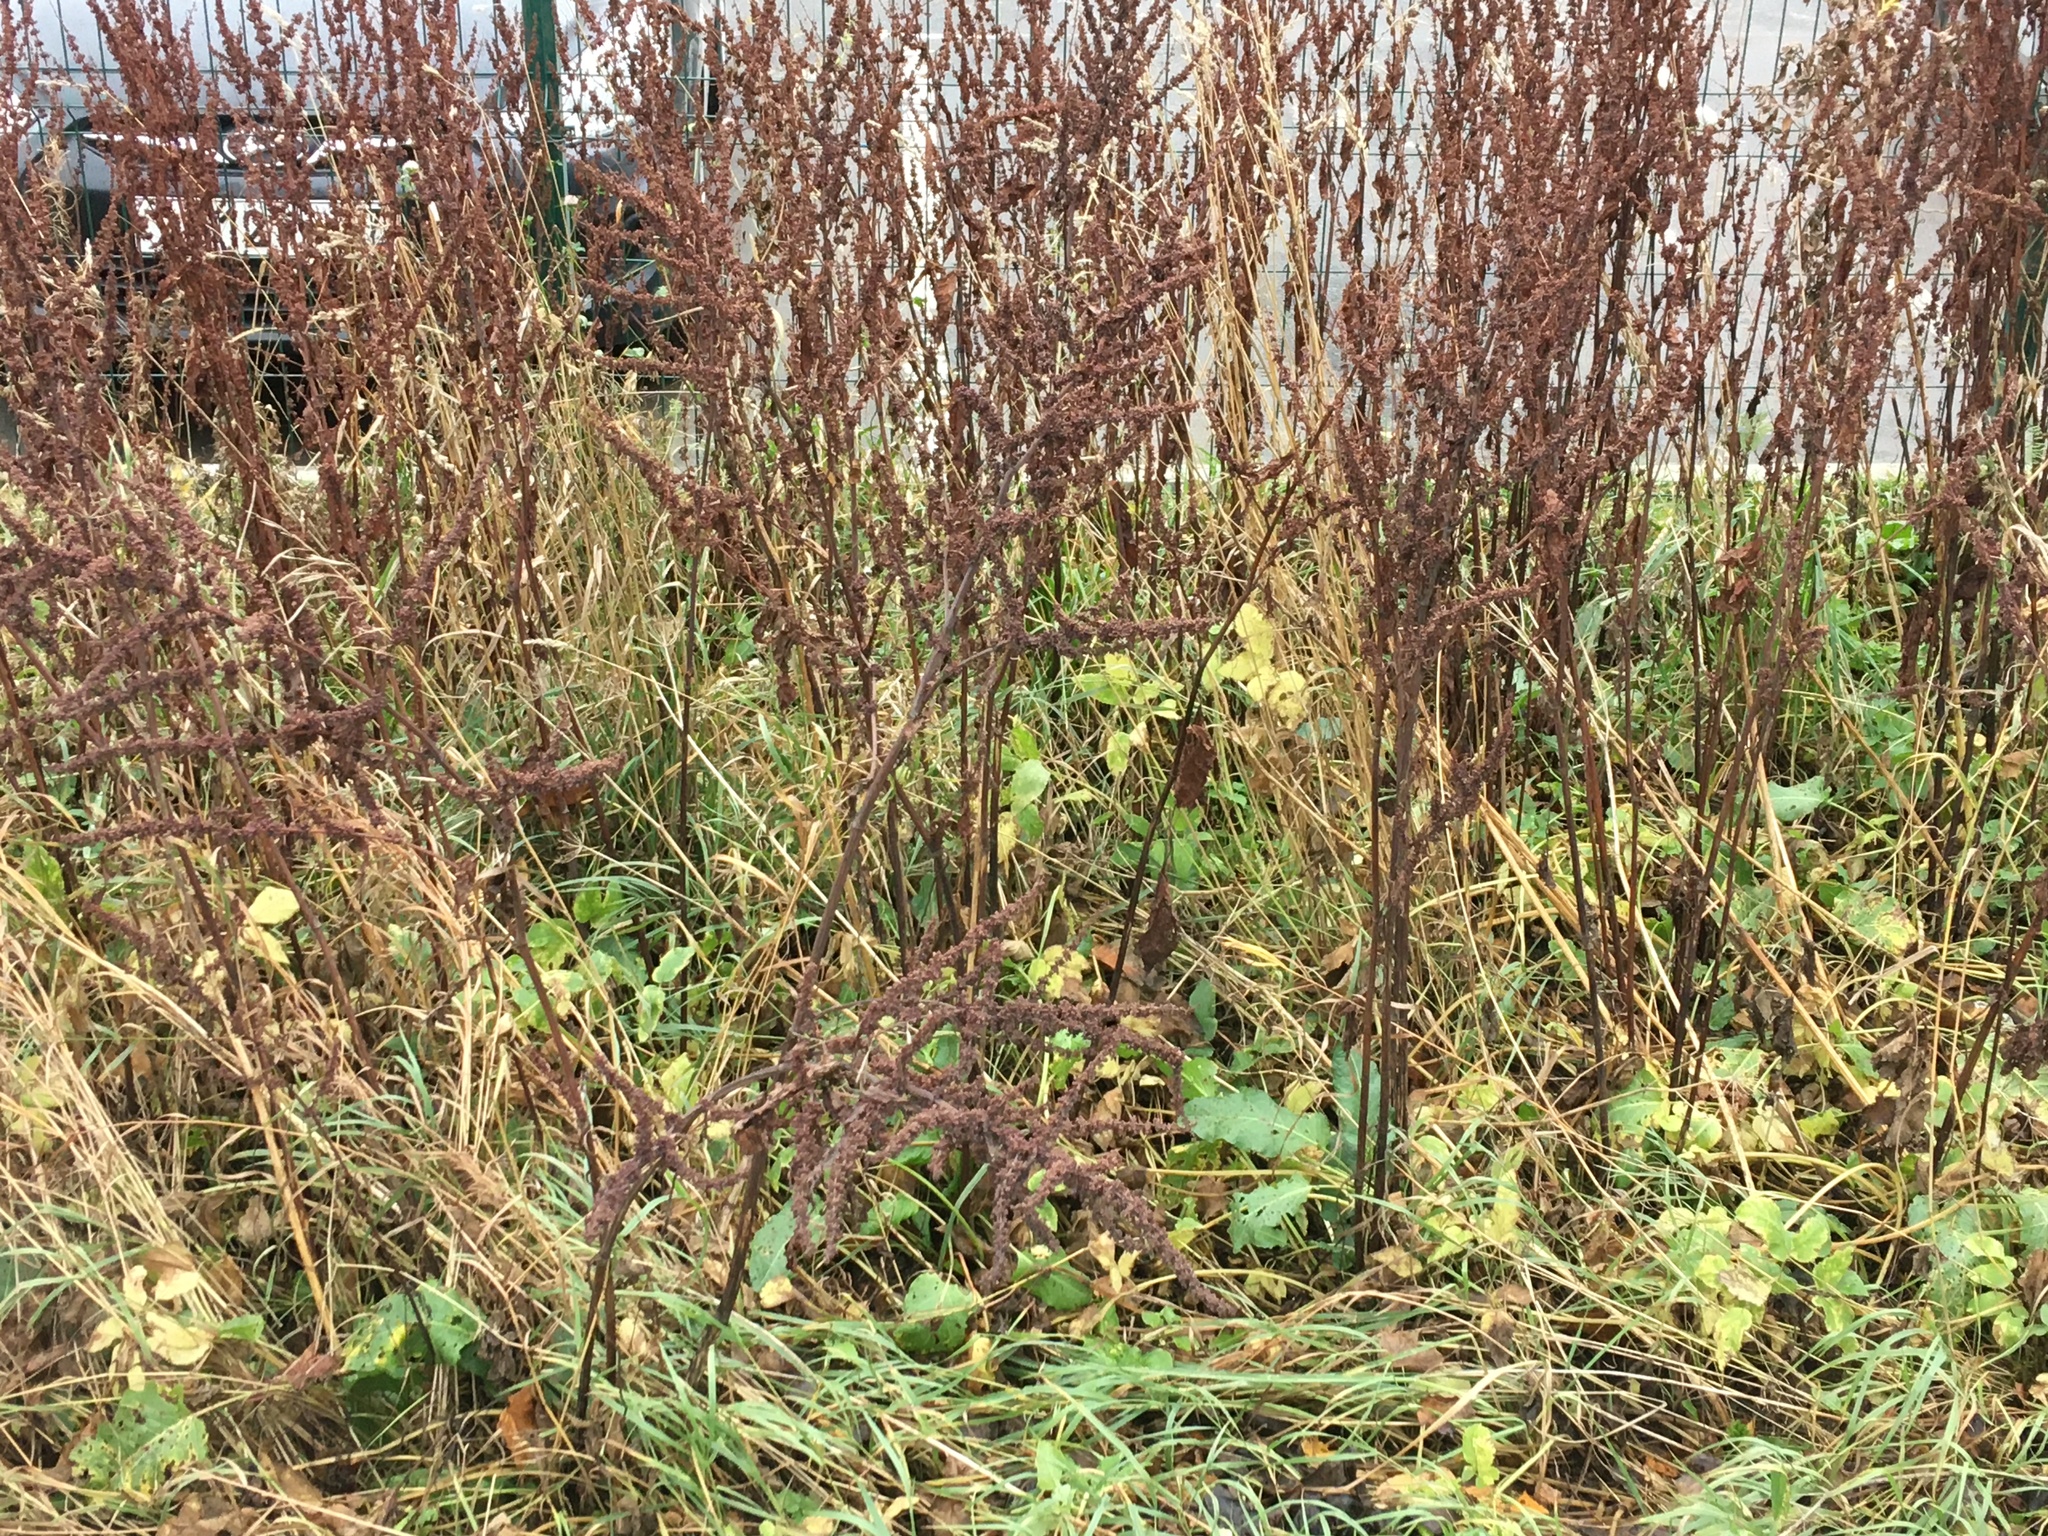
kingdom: Plantae
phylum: Tracheophyta
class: Magnoliopsida
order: Caryophyllales
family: Polygonaceae
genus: Rumex
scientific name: Rumex obtusifolius
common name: Bitter dock
